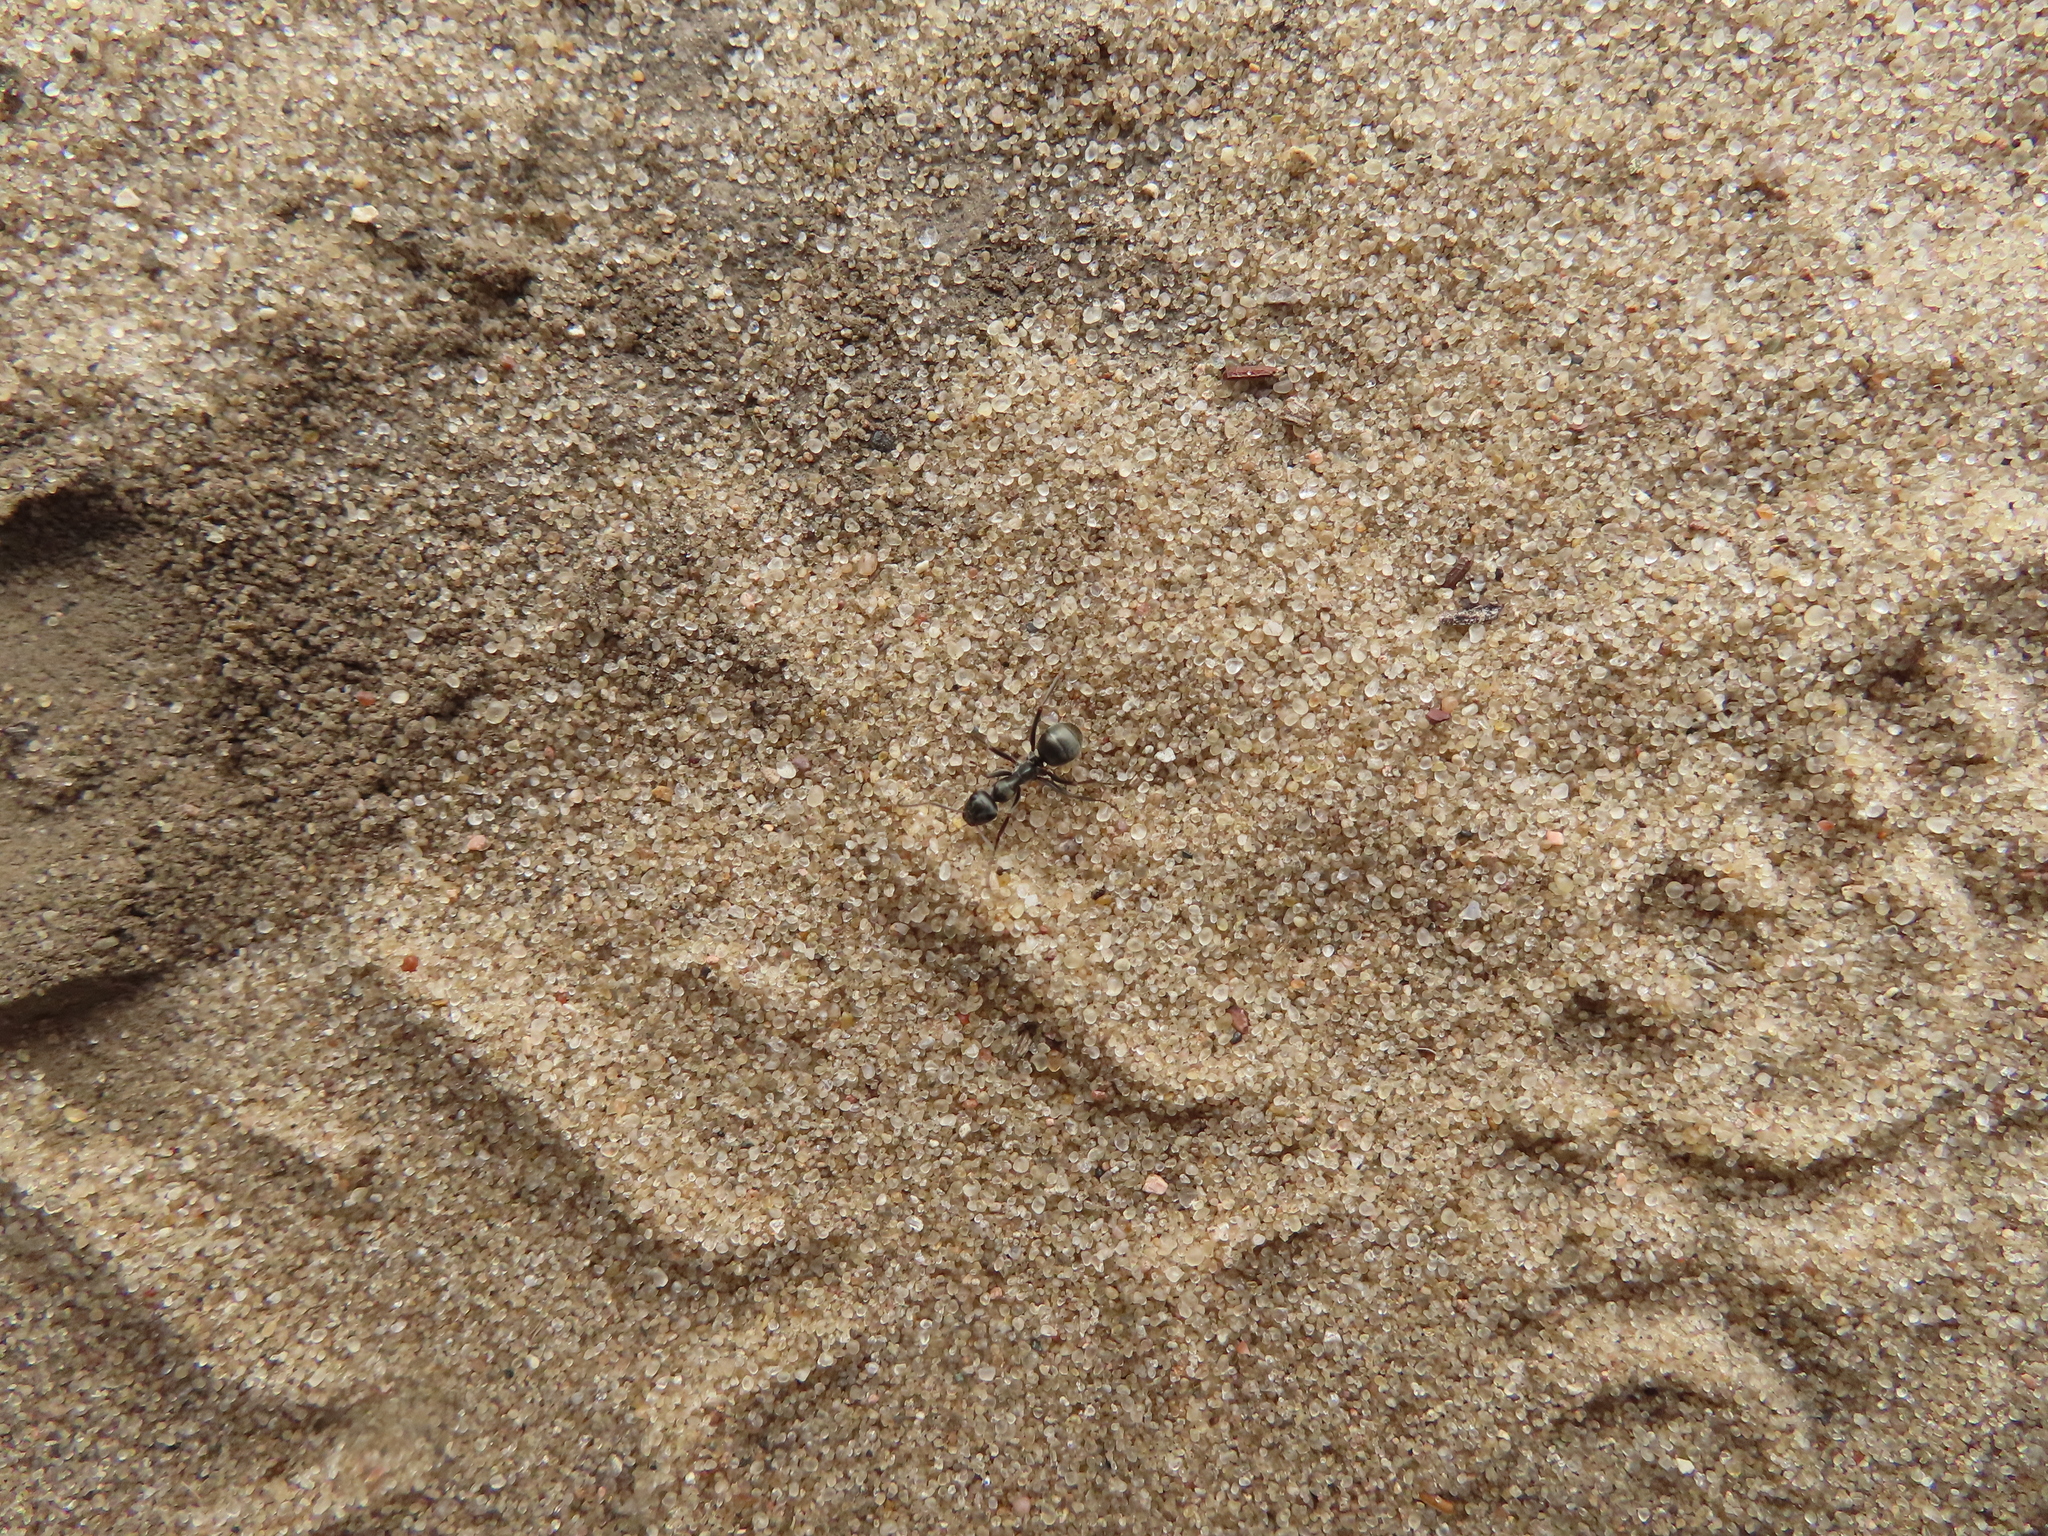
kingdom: Animalia
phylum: Arthropoda
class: Insecta
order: Hymenoptera
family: Formicidae
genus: Formica
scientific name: Formica subsericea
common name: Silky field ant
